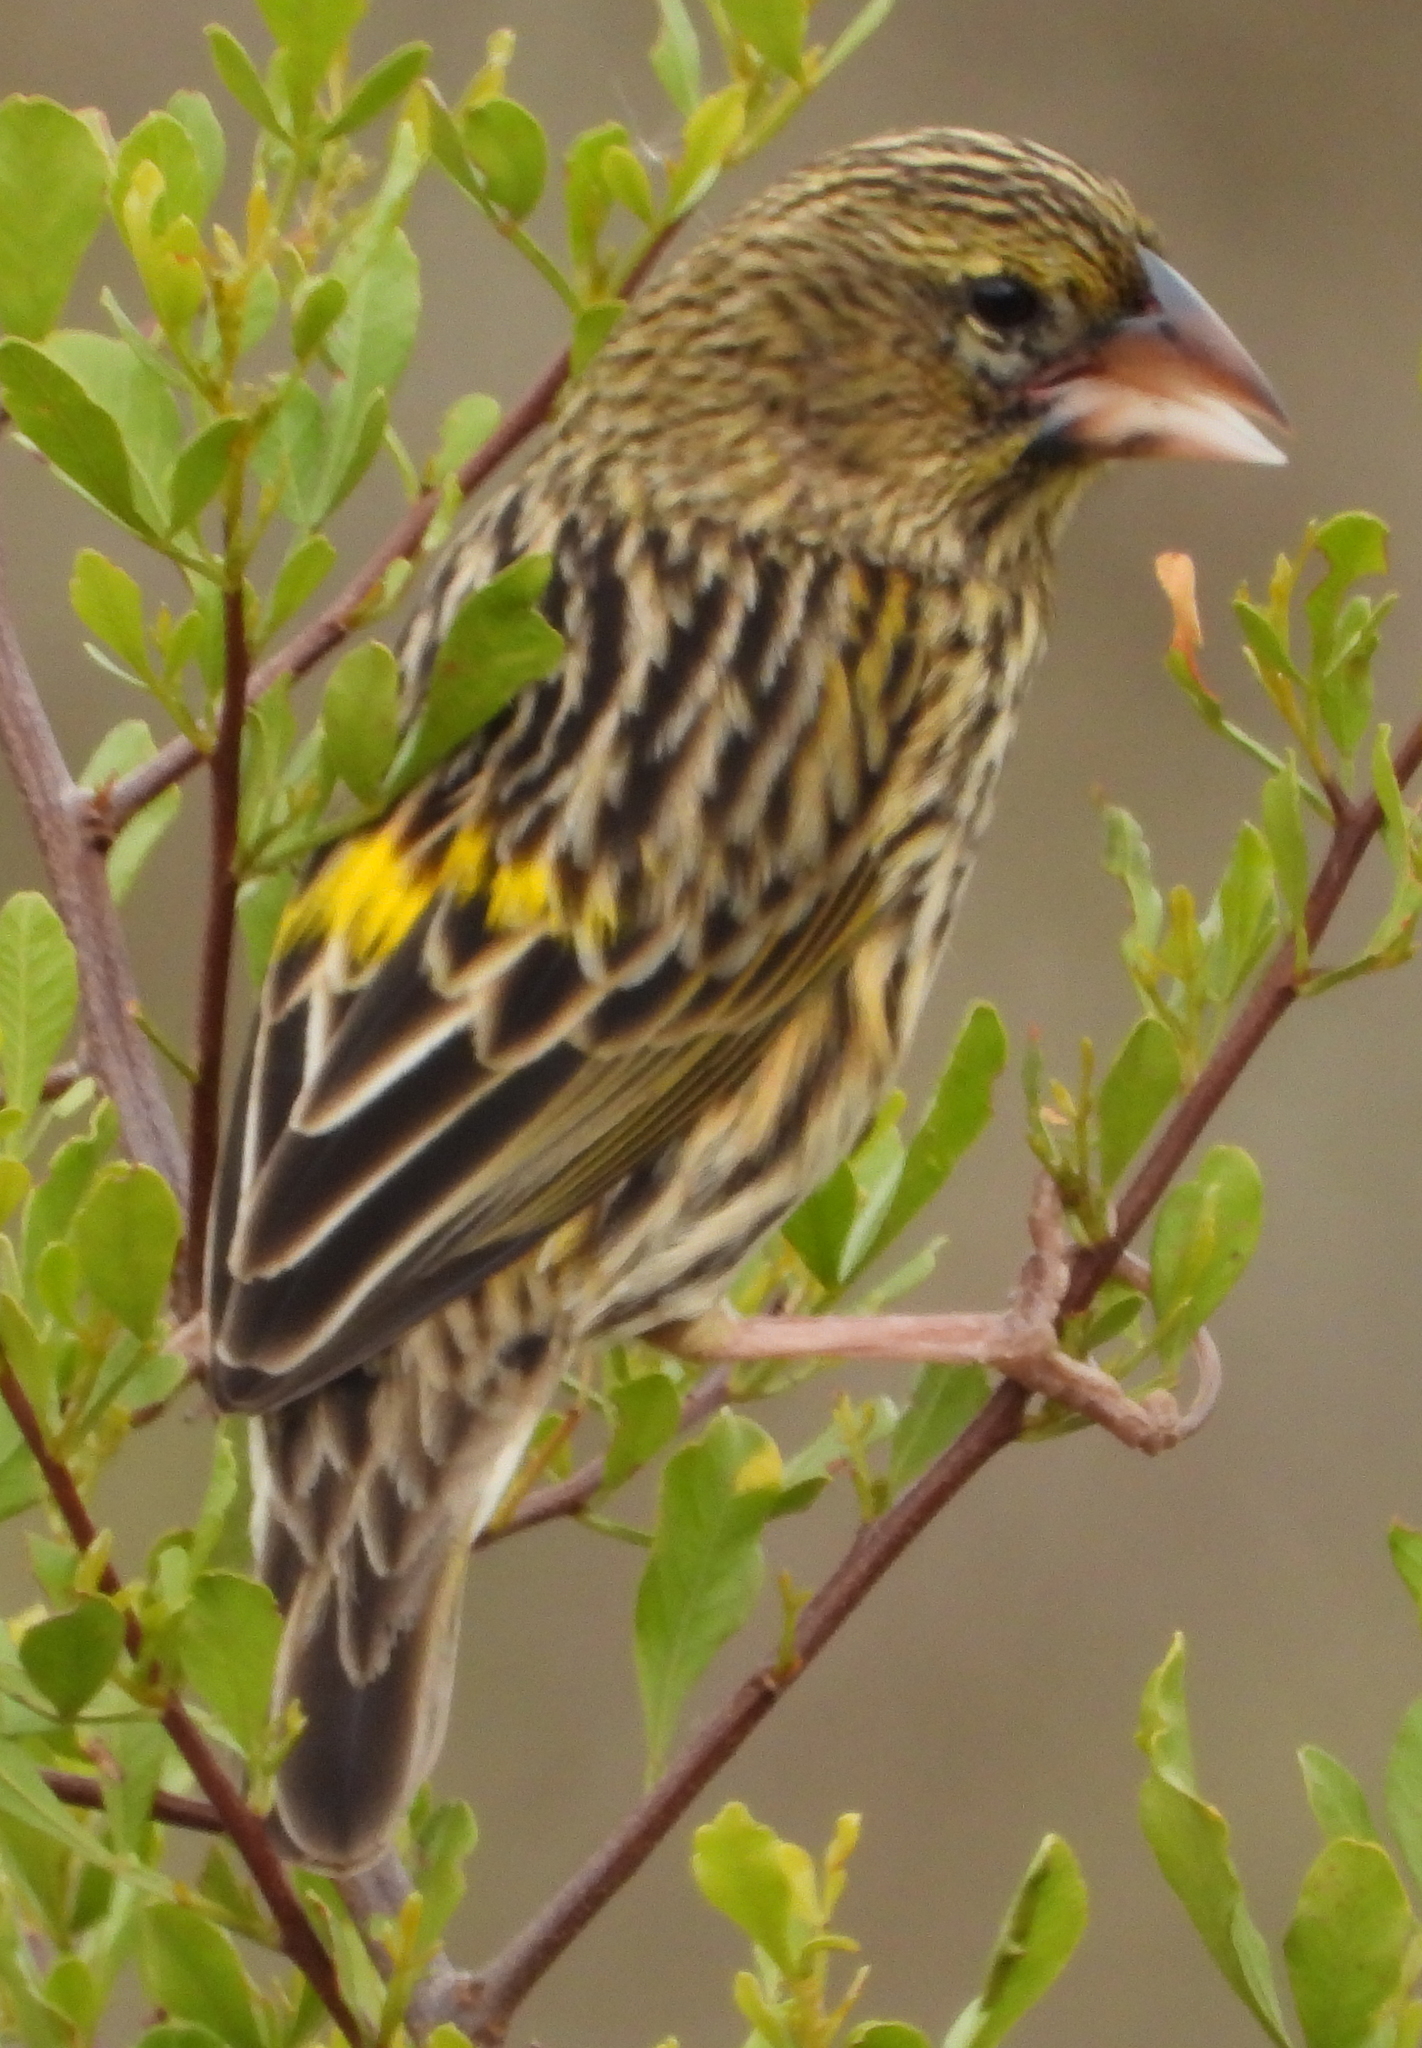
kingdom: Animalia
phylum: Chordata
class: Aves
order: Passeriformes
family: Ploceidae
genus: Euplectes
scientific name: Euplectes capensis
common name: Yellow bishop
